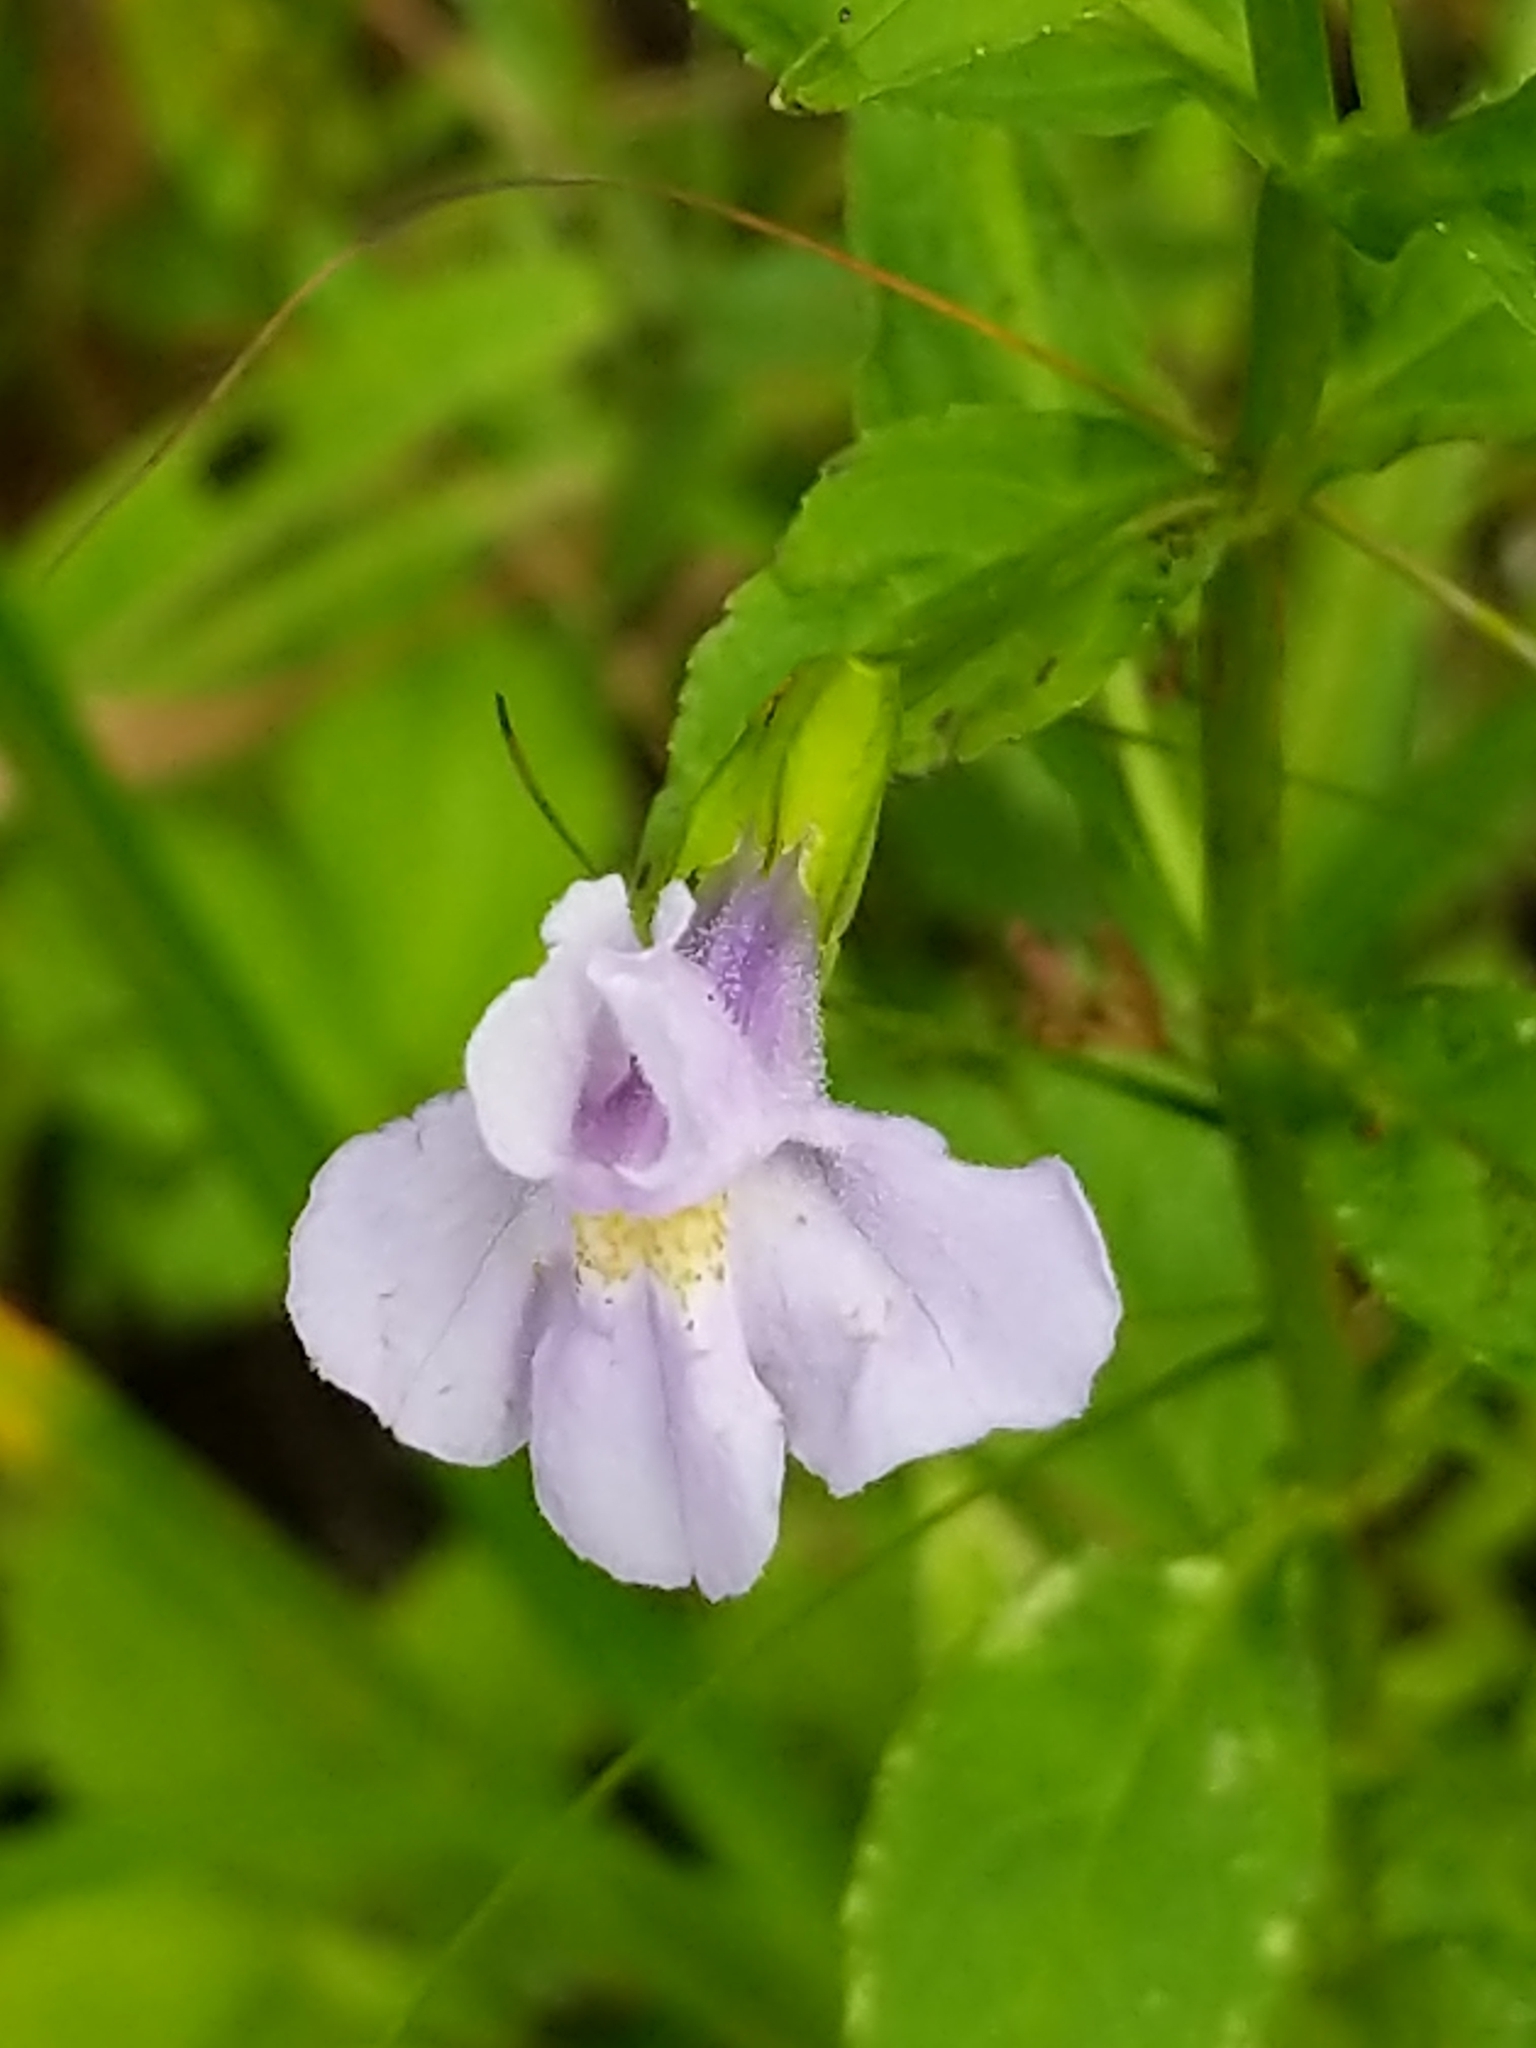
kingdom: Plantae
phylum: Tracheophyta
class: Magnoliopsida
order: Lamiales
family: Phrymaceae
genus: Mimulus
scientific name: Mimulus ringens
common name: Allegheny monkeyflower
